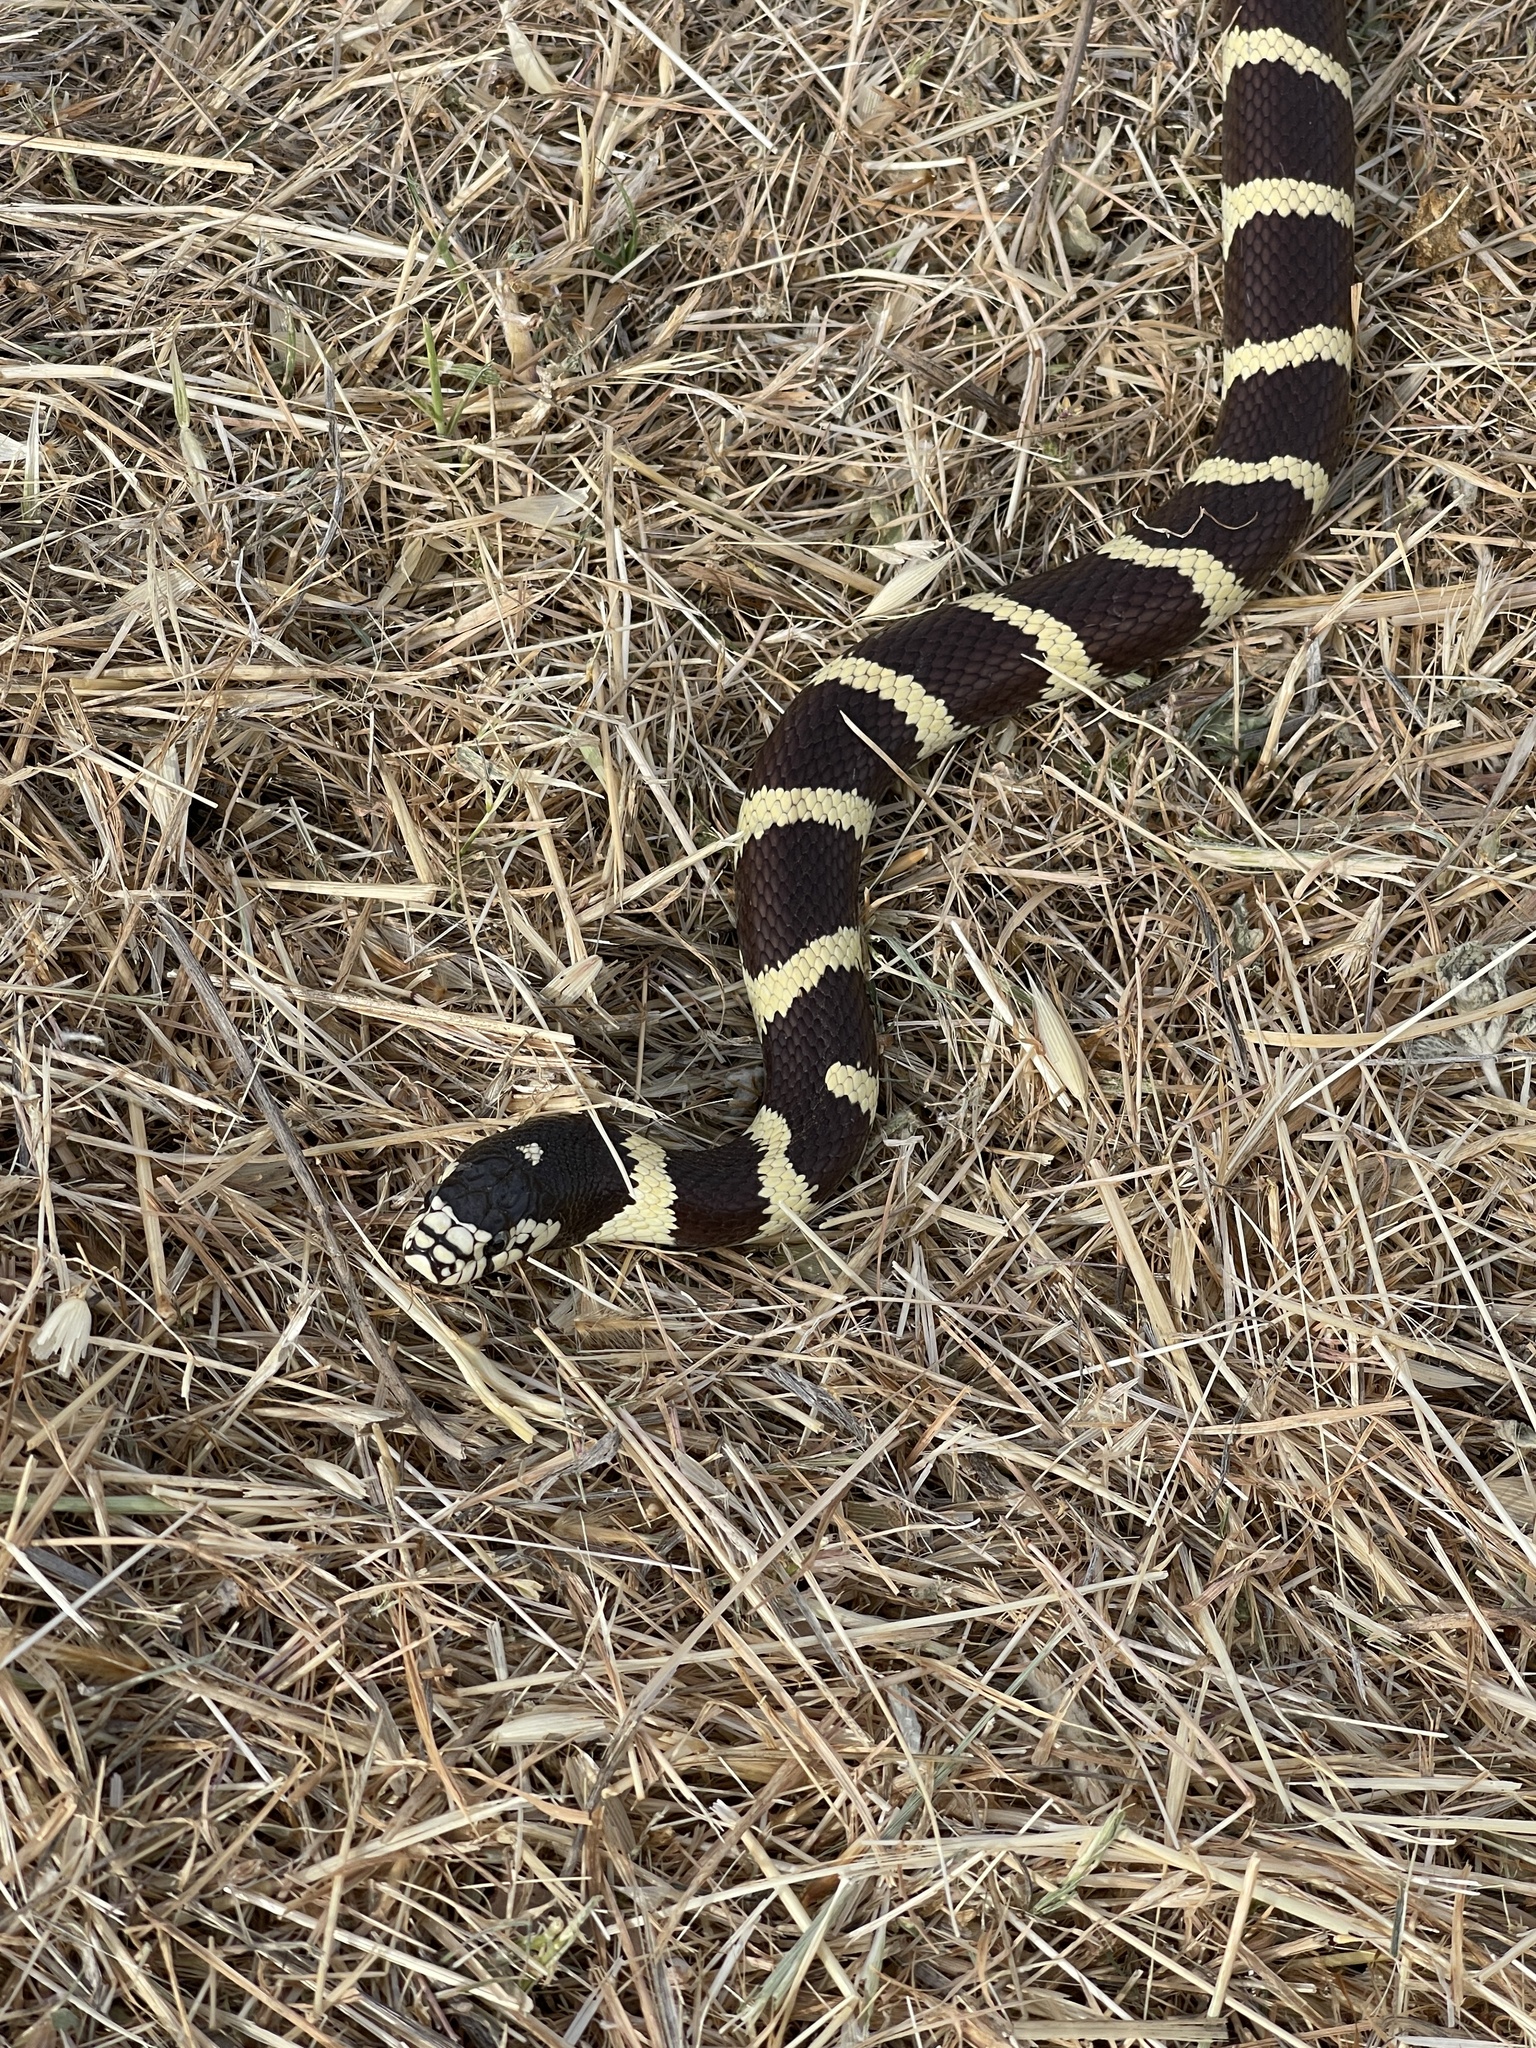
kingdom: Animalia
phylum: Chordata
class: Squamata
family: Colubridae
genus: Lampropeltis
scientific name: Lampropeltis californiae
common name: California kingsnake
